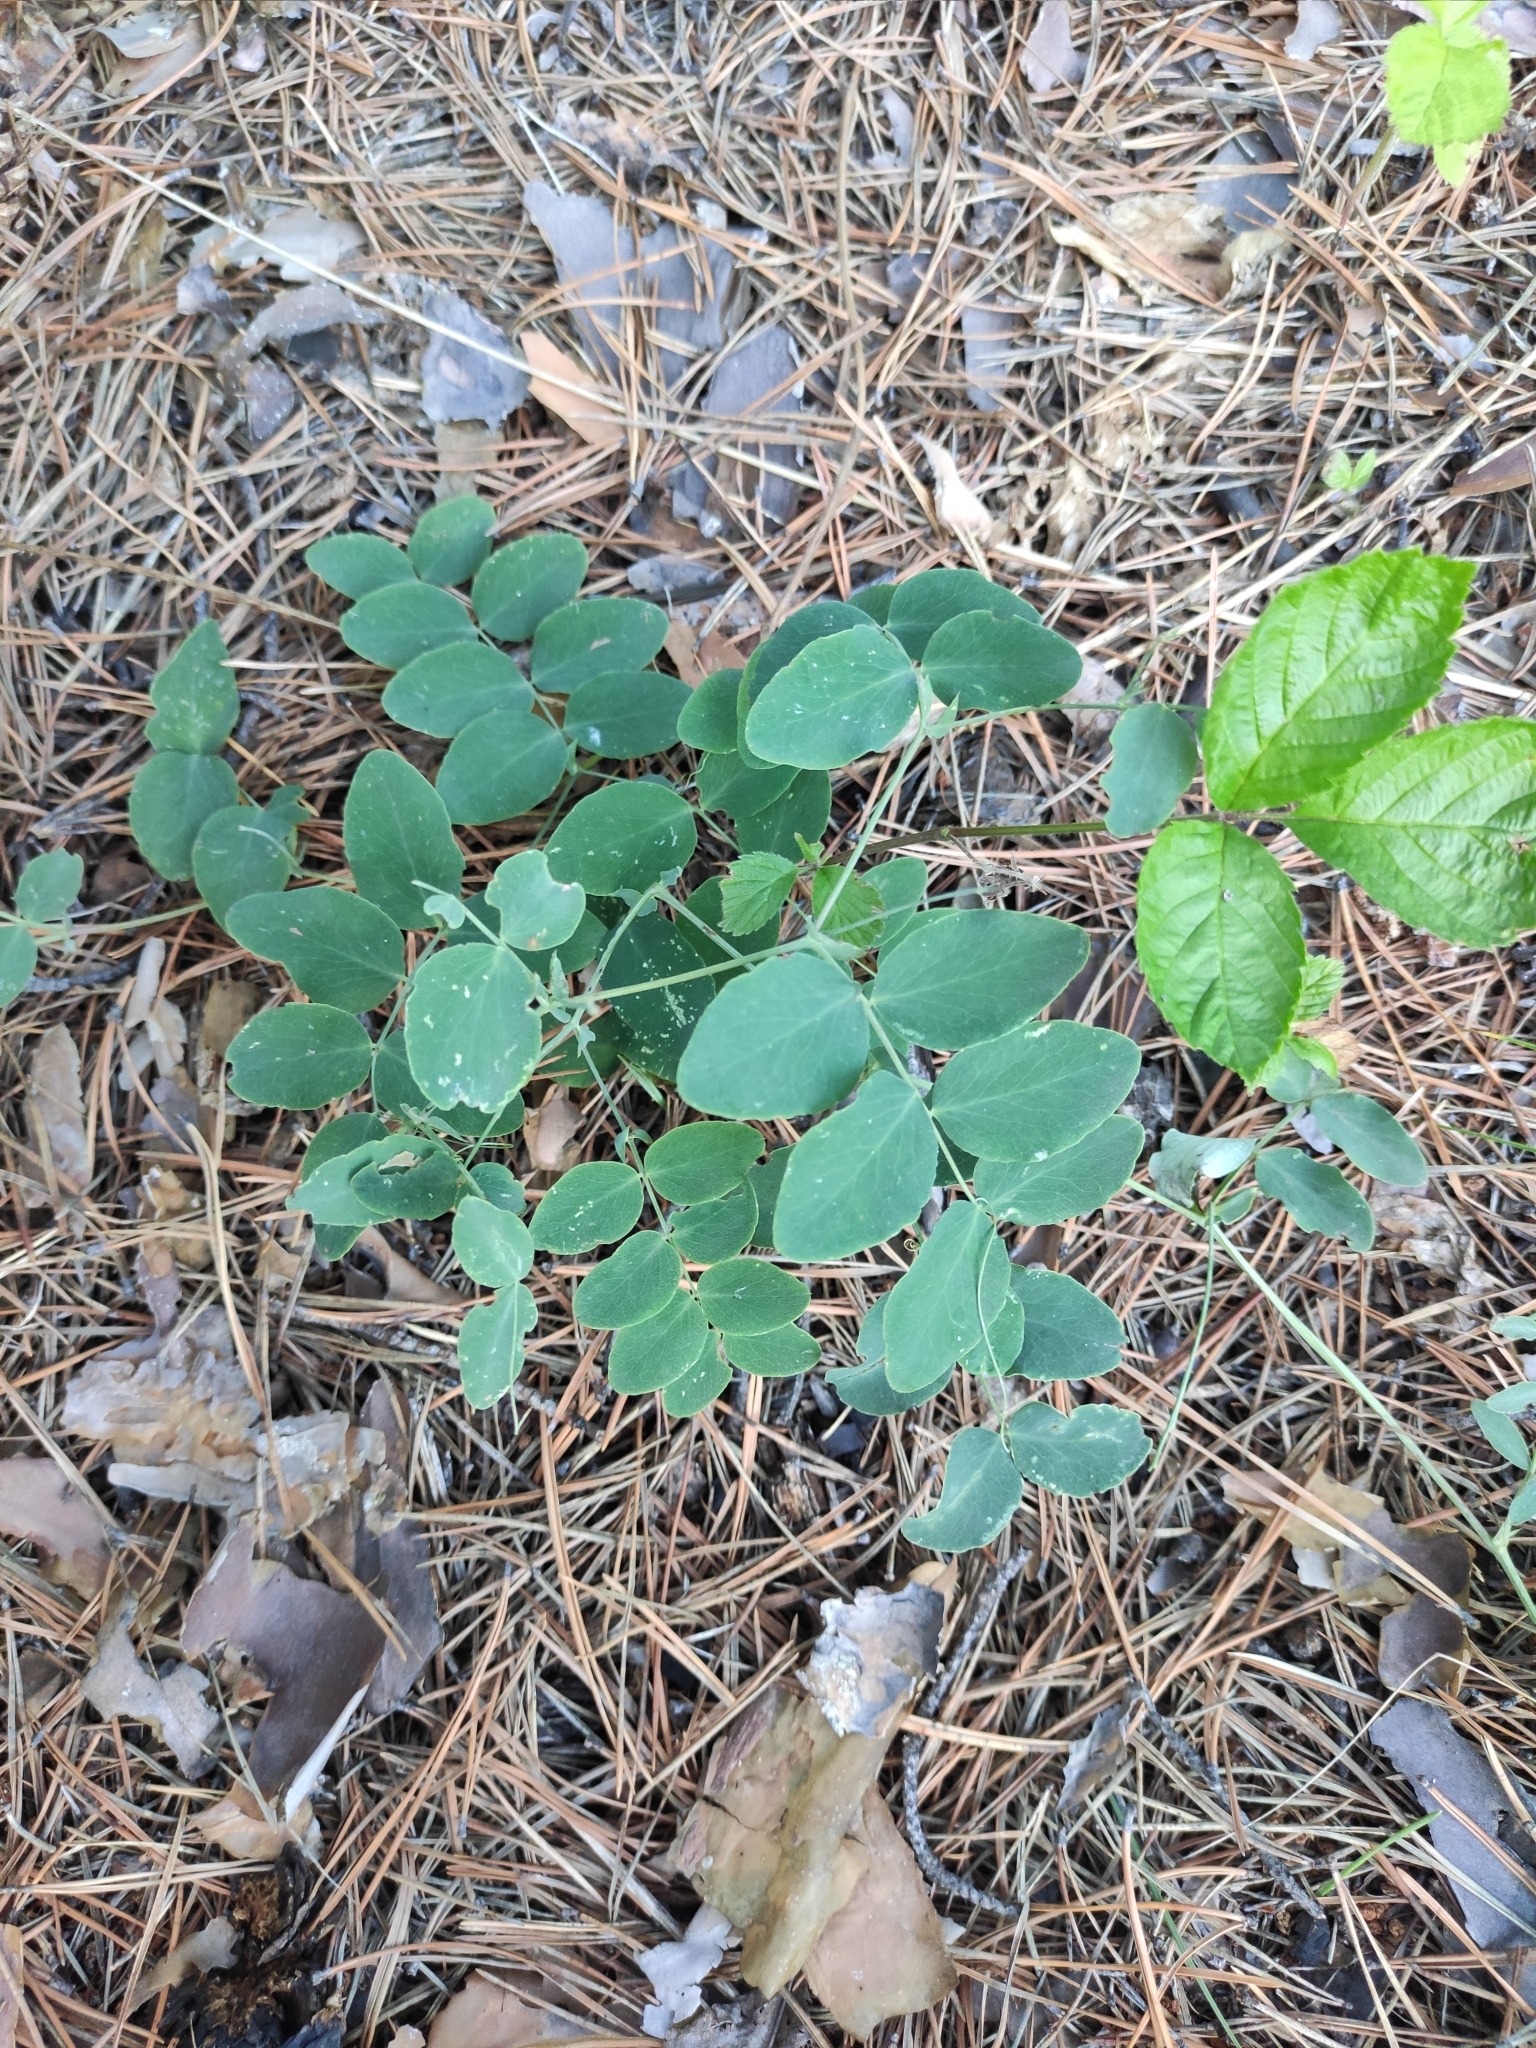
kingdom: Plantae
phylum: Tracheophyta
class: Magnoliopsida
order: Fabales
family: Fabaceae
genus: Lathyrus
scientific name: Lathyrus humilis
